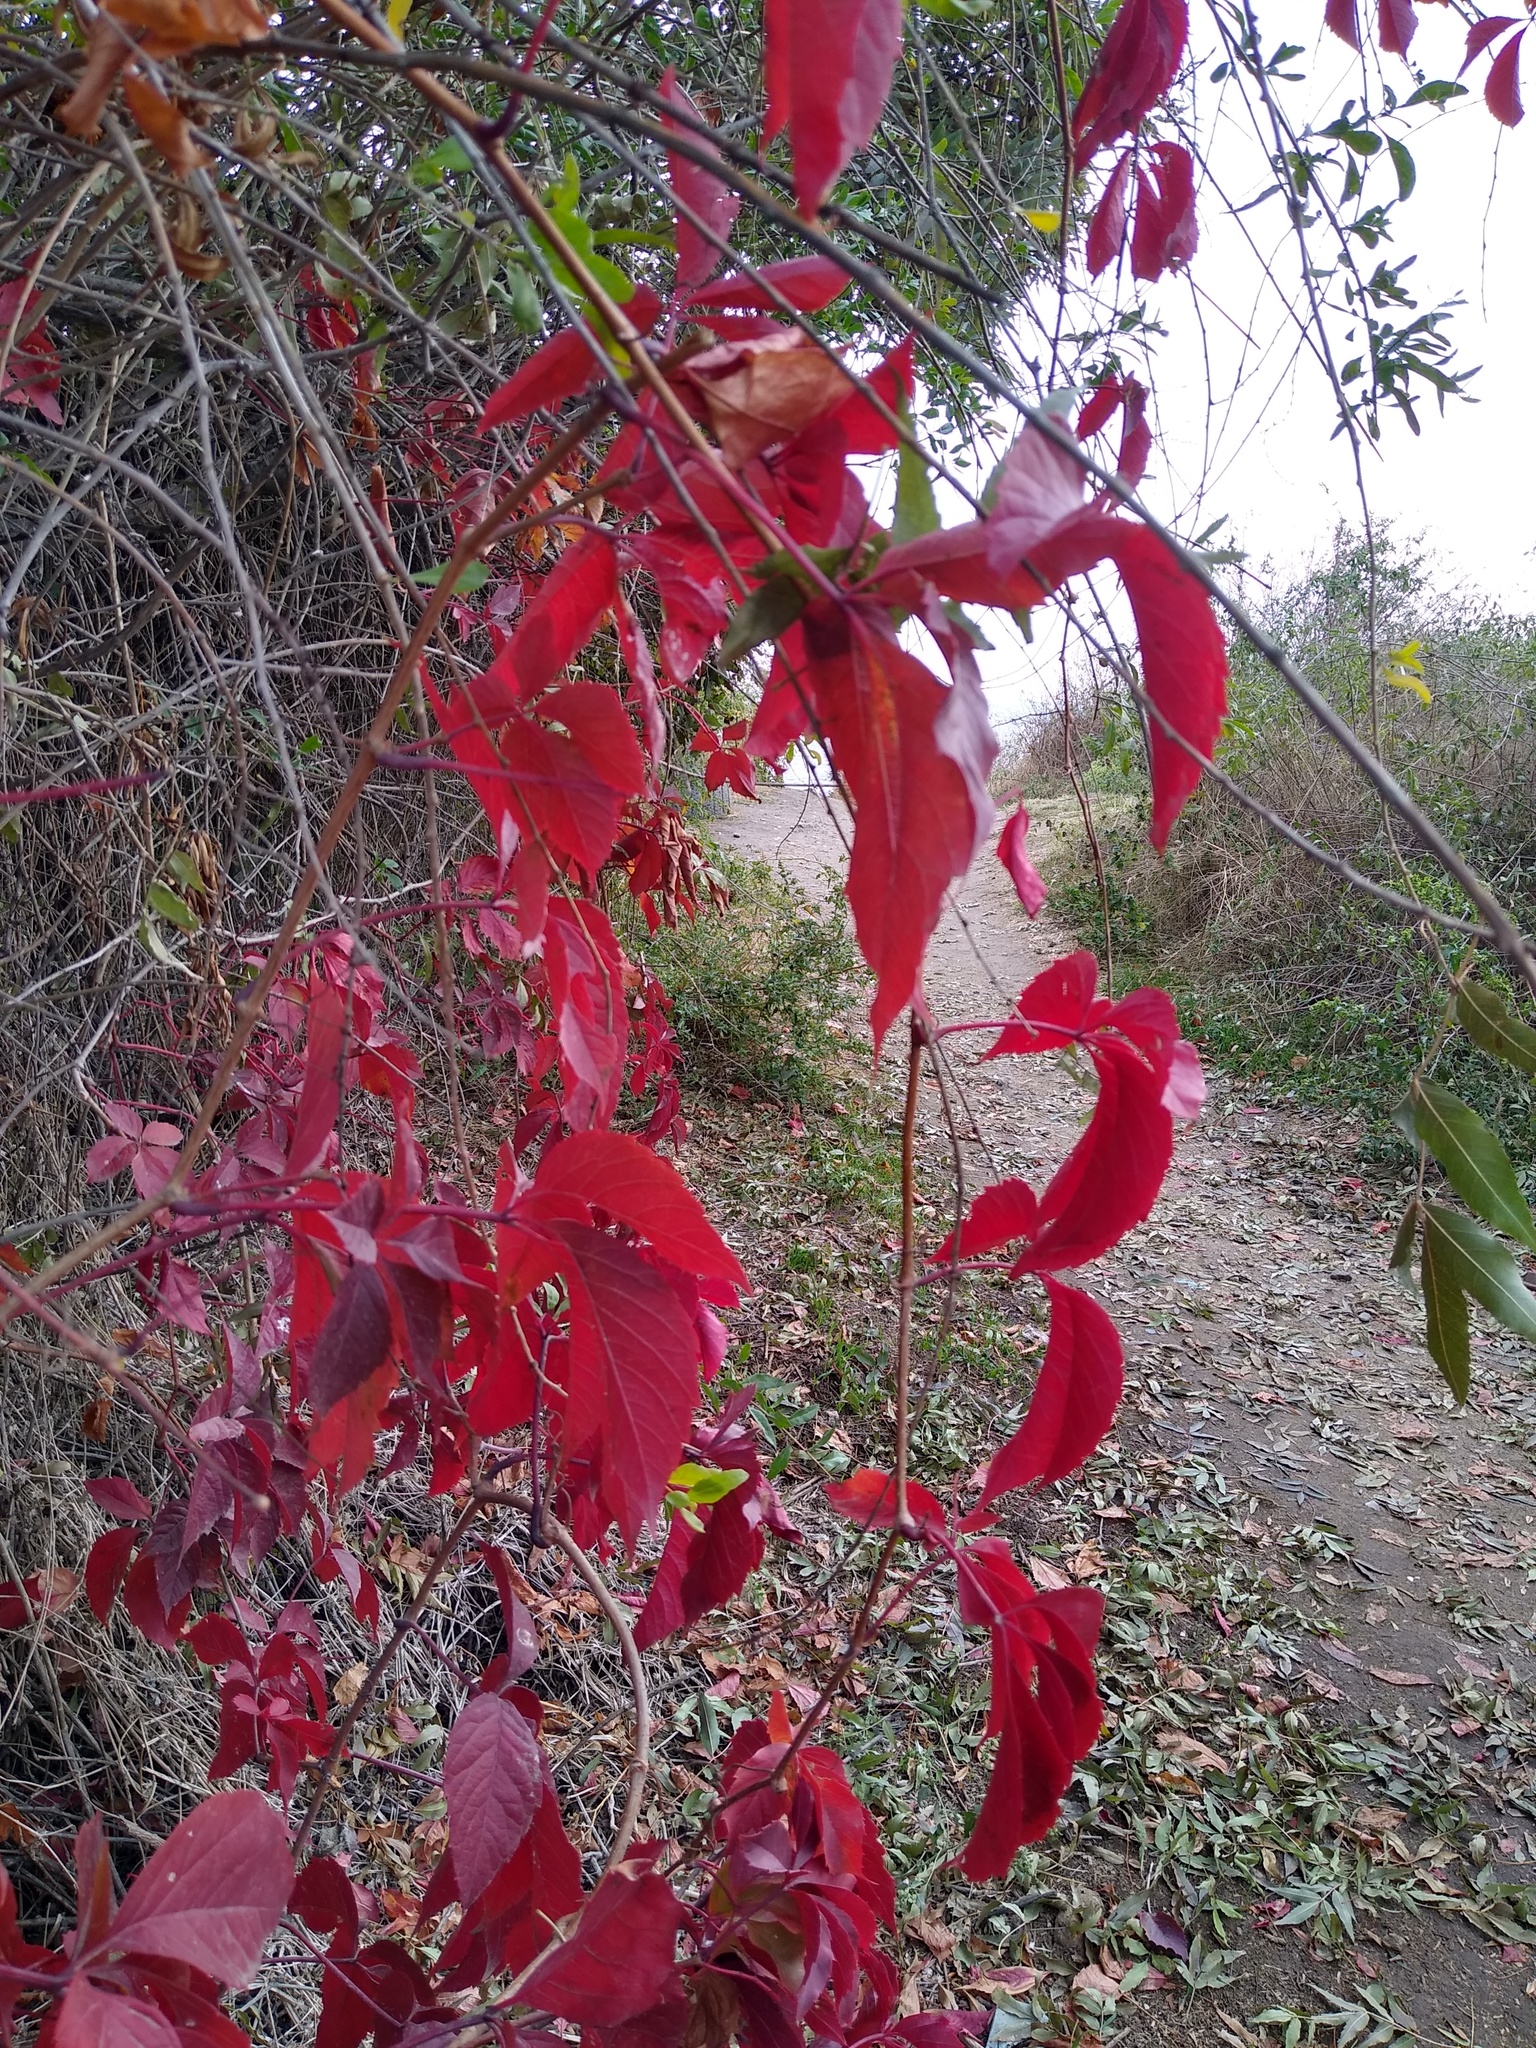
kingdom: Plantae
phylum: Tracheophyta
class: Magnoliopsida
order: Vitales
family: Vitaceae
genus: Parthenocissus
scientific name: Parthenocissus inserta
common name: False virginia-creeper
